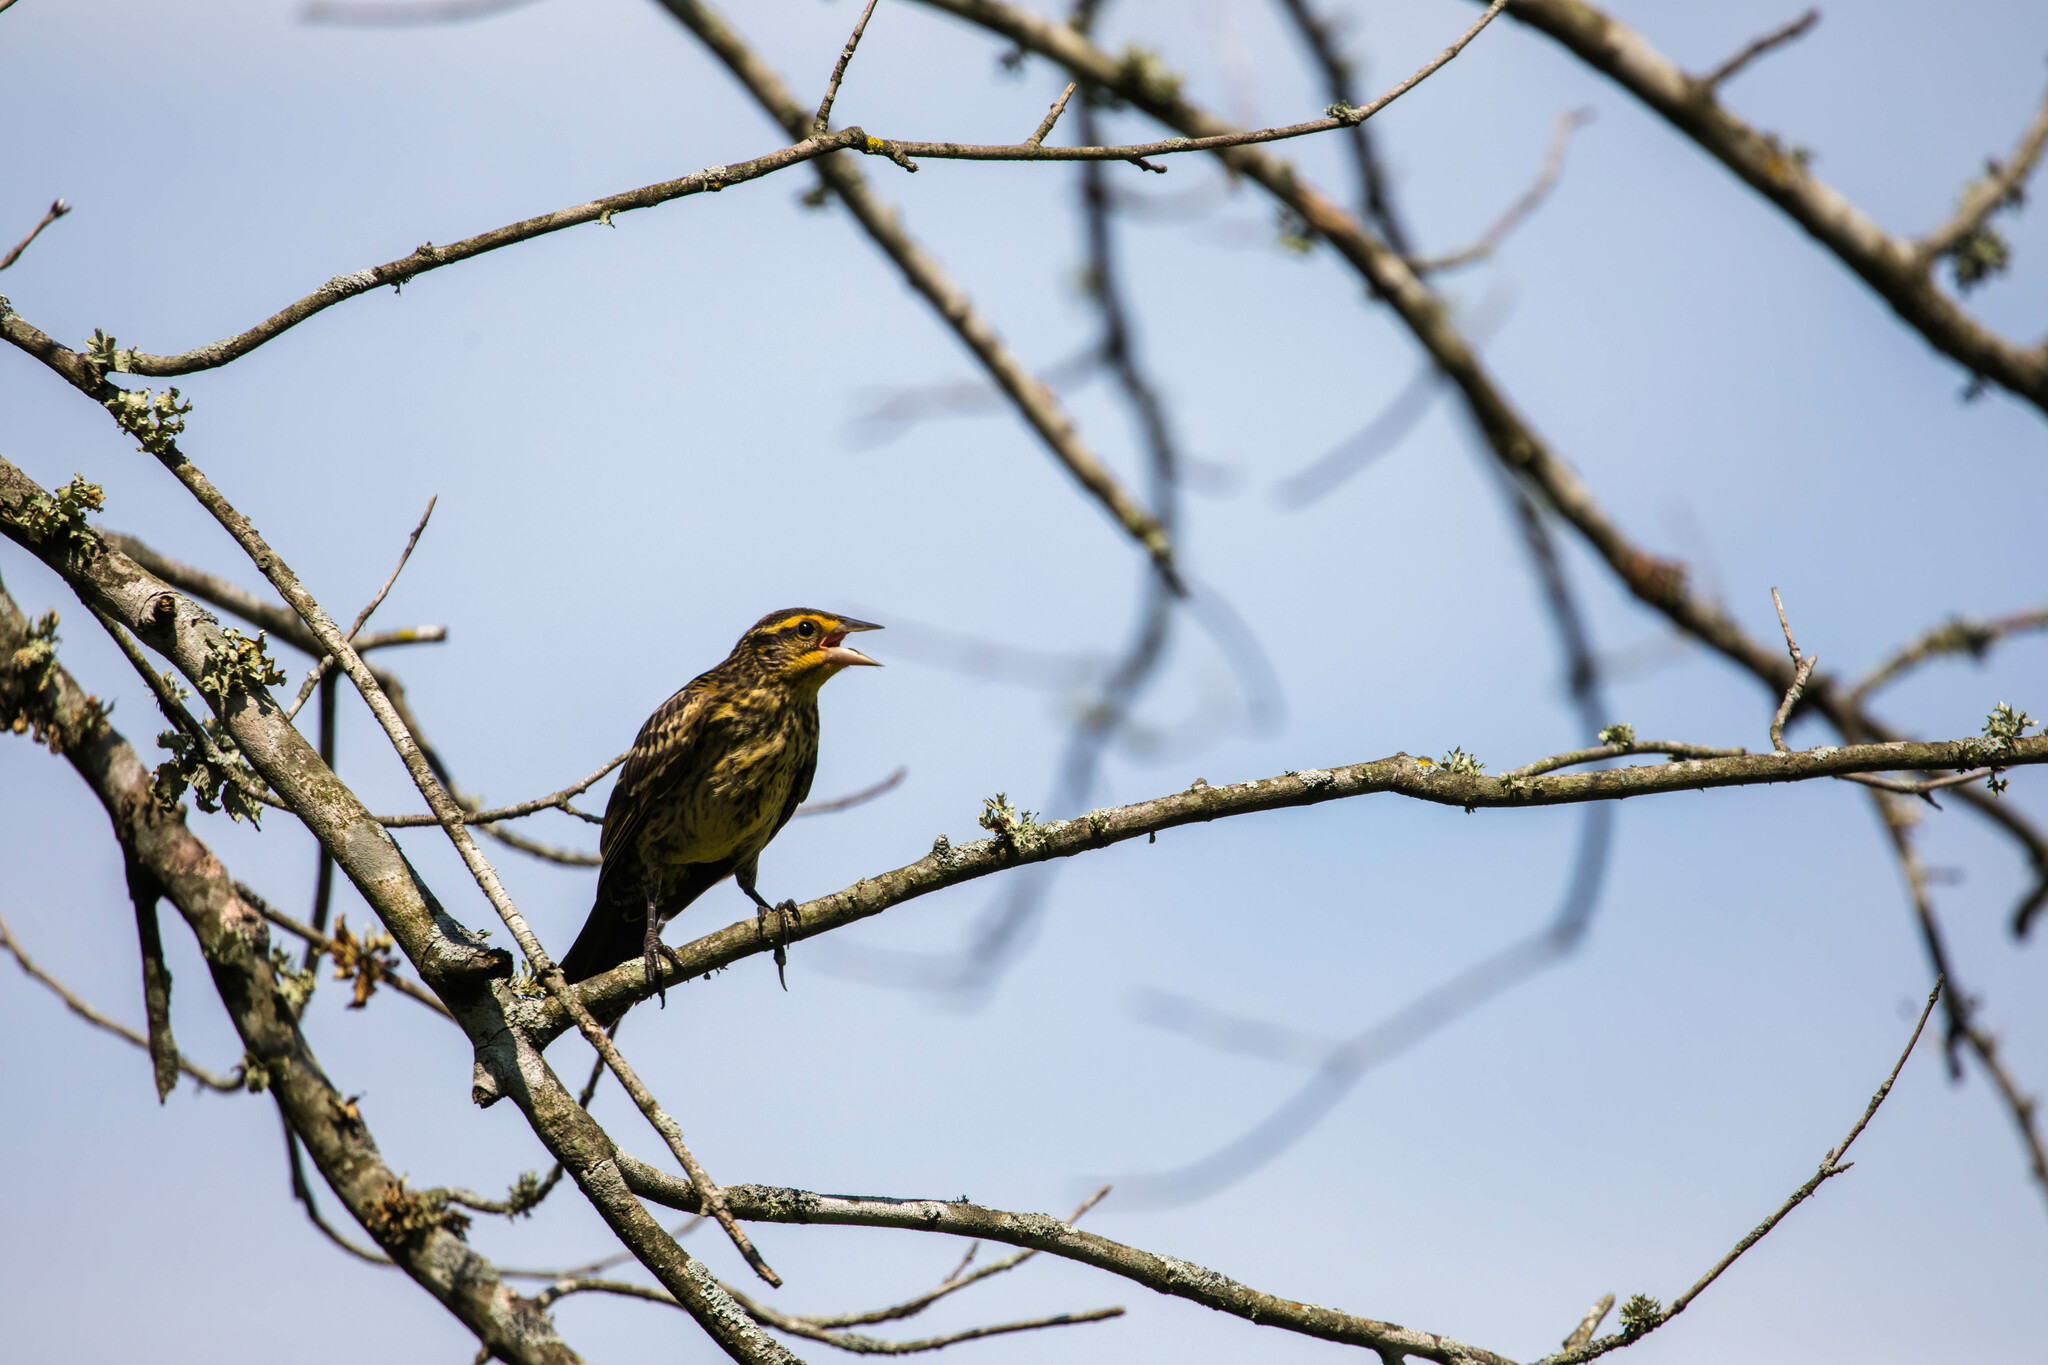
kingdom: Animalia
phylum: Chordata
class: Aves
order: Passeriformes
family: Icteridae
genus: Agelaius
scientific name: Agelaius phoeniceus
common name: Red-winged blackbird
